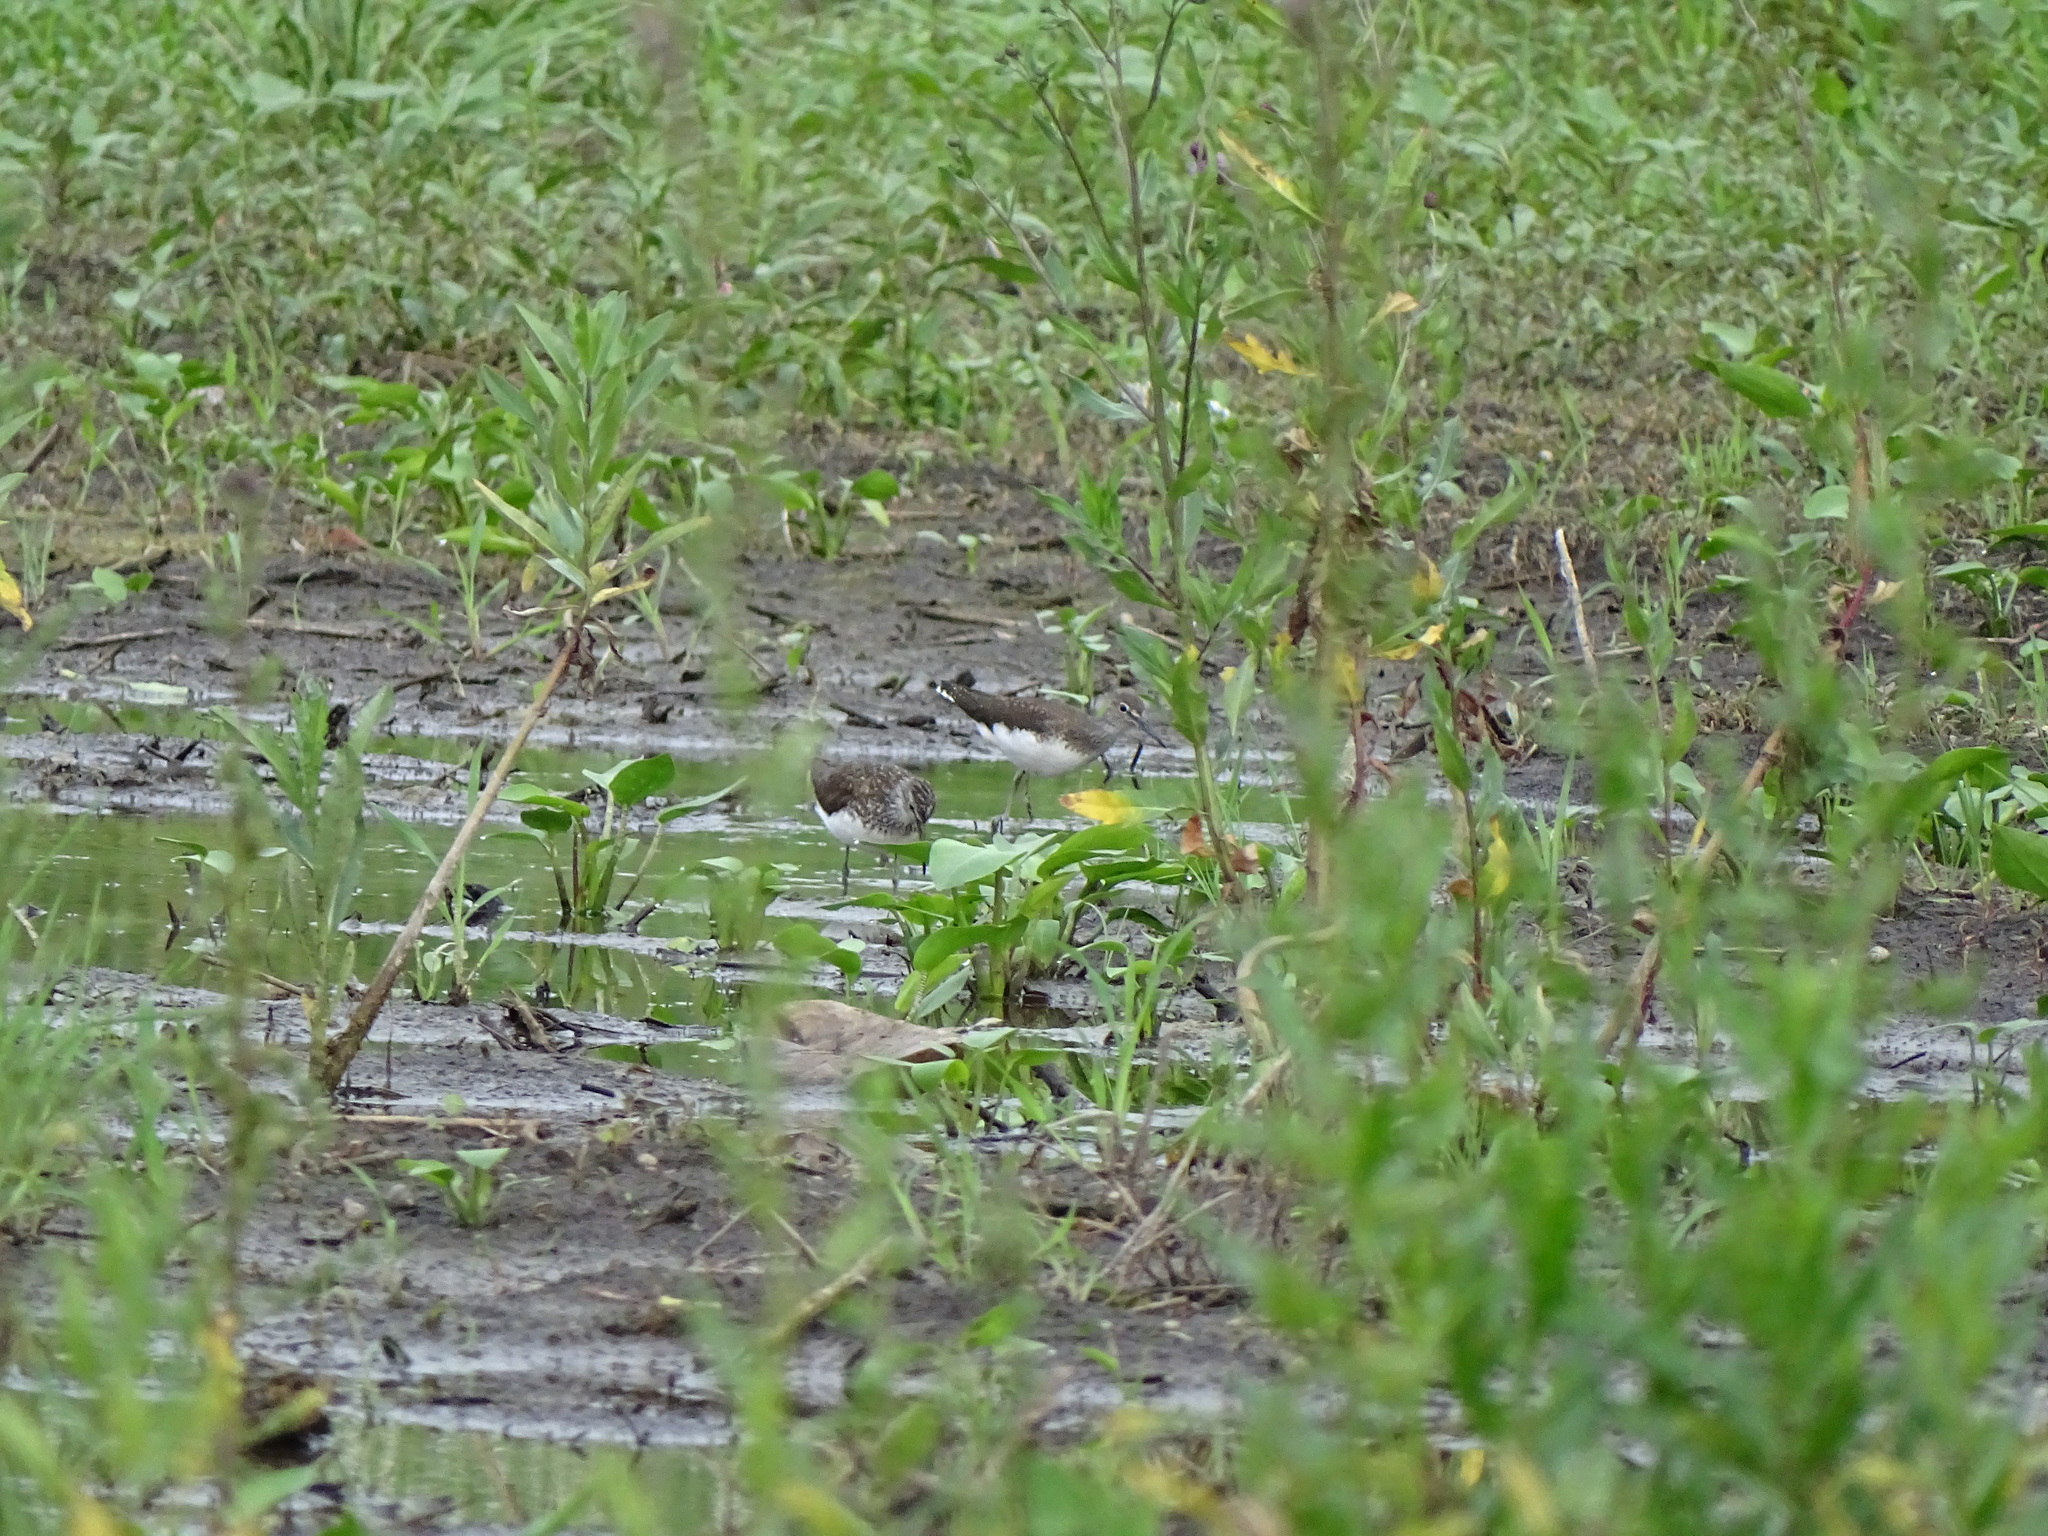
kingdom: Animalia
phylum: Chordata
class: Aves
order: Charadriiformes
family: Scolopacidae
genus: Tringa
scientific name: Tringa ochropus
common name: Green sandpiper
